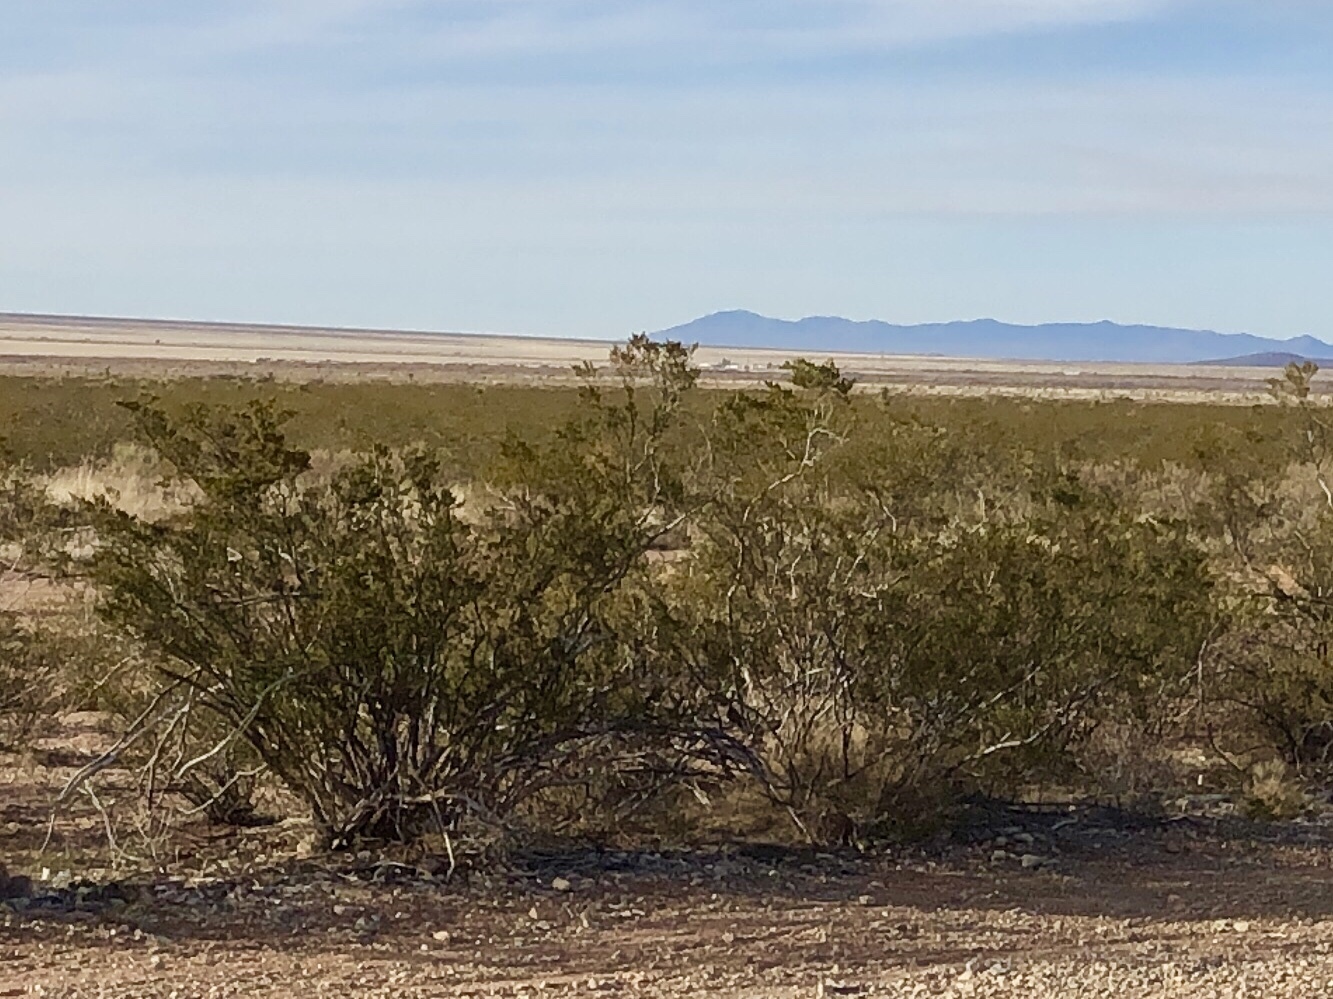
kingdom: Plantae
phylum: Tracheophyta
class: Magnoliopsida
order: Zygophyllales
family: Zygophyllaceae
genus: Larrea
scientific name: Larrea tridentata
